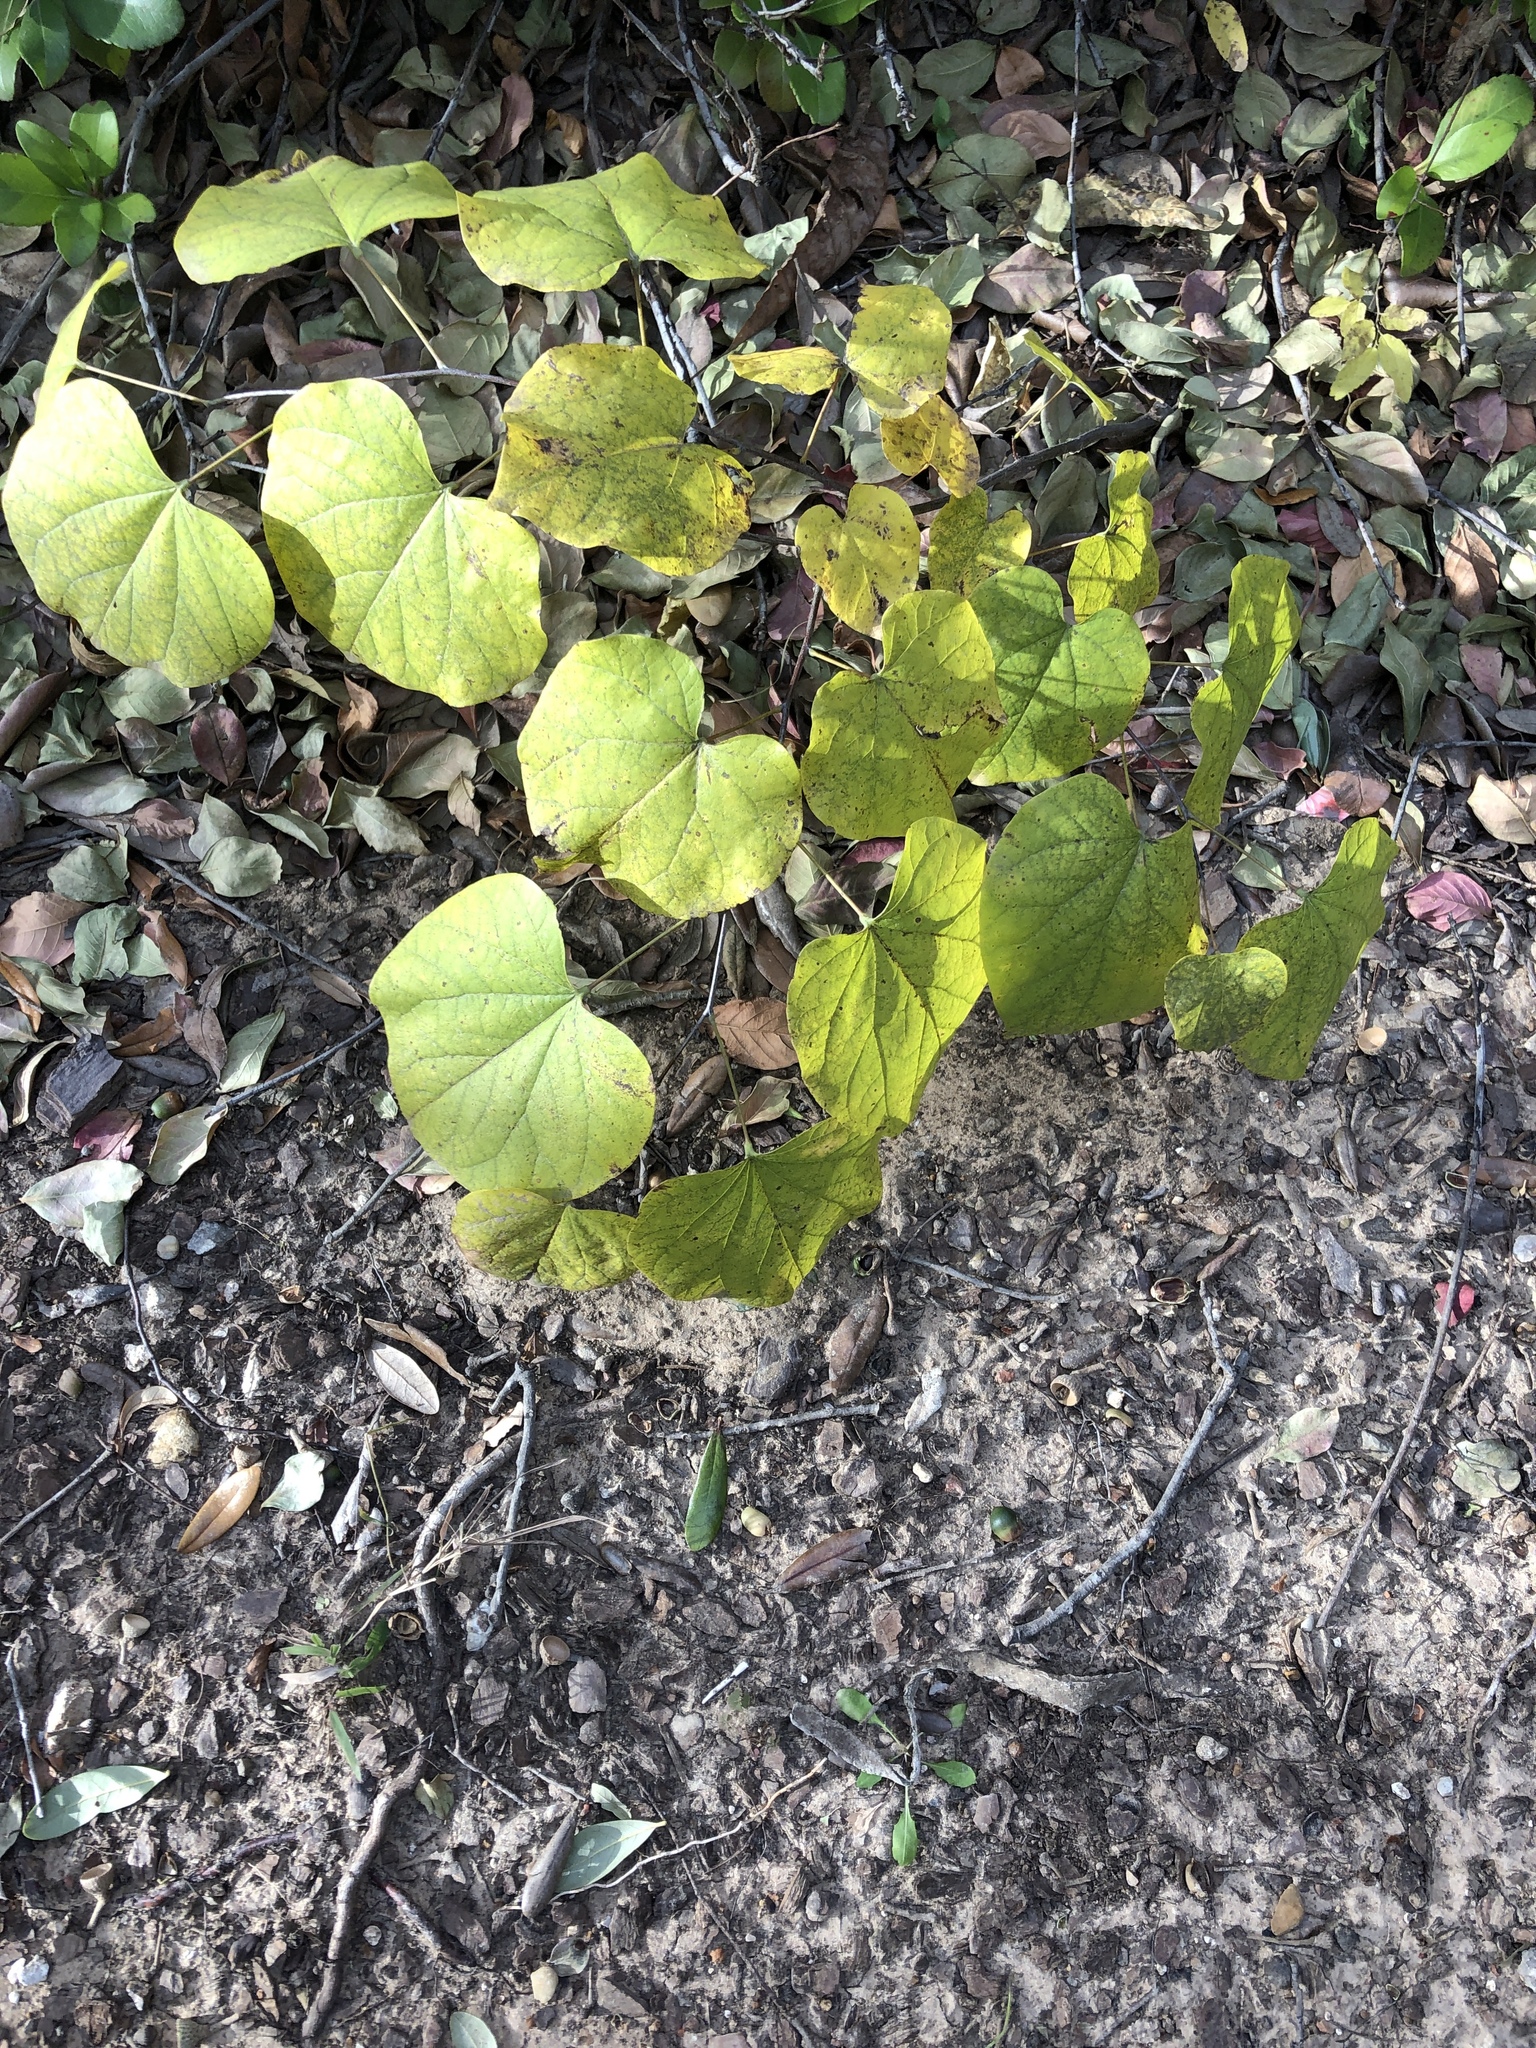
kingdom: Plantae
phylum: Tracheophyta
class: Magnoliopsida
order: Fabales
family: Fabaceae
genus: Cercis
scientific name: Cercis canadensis
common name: Eastern redbud
